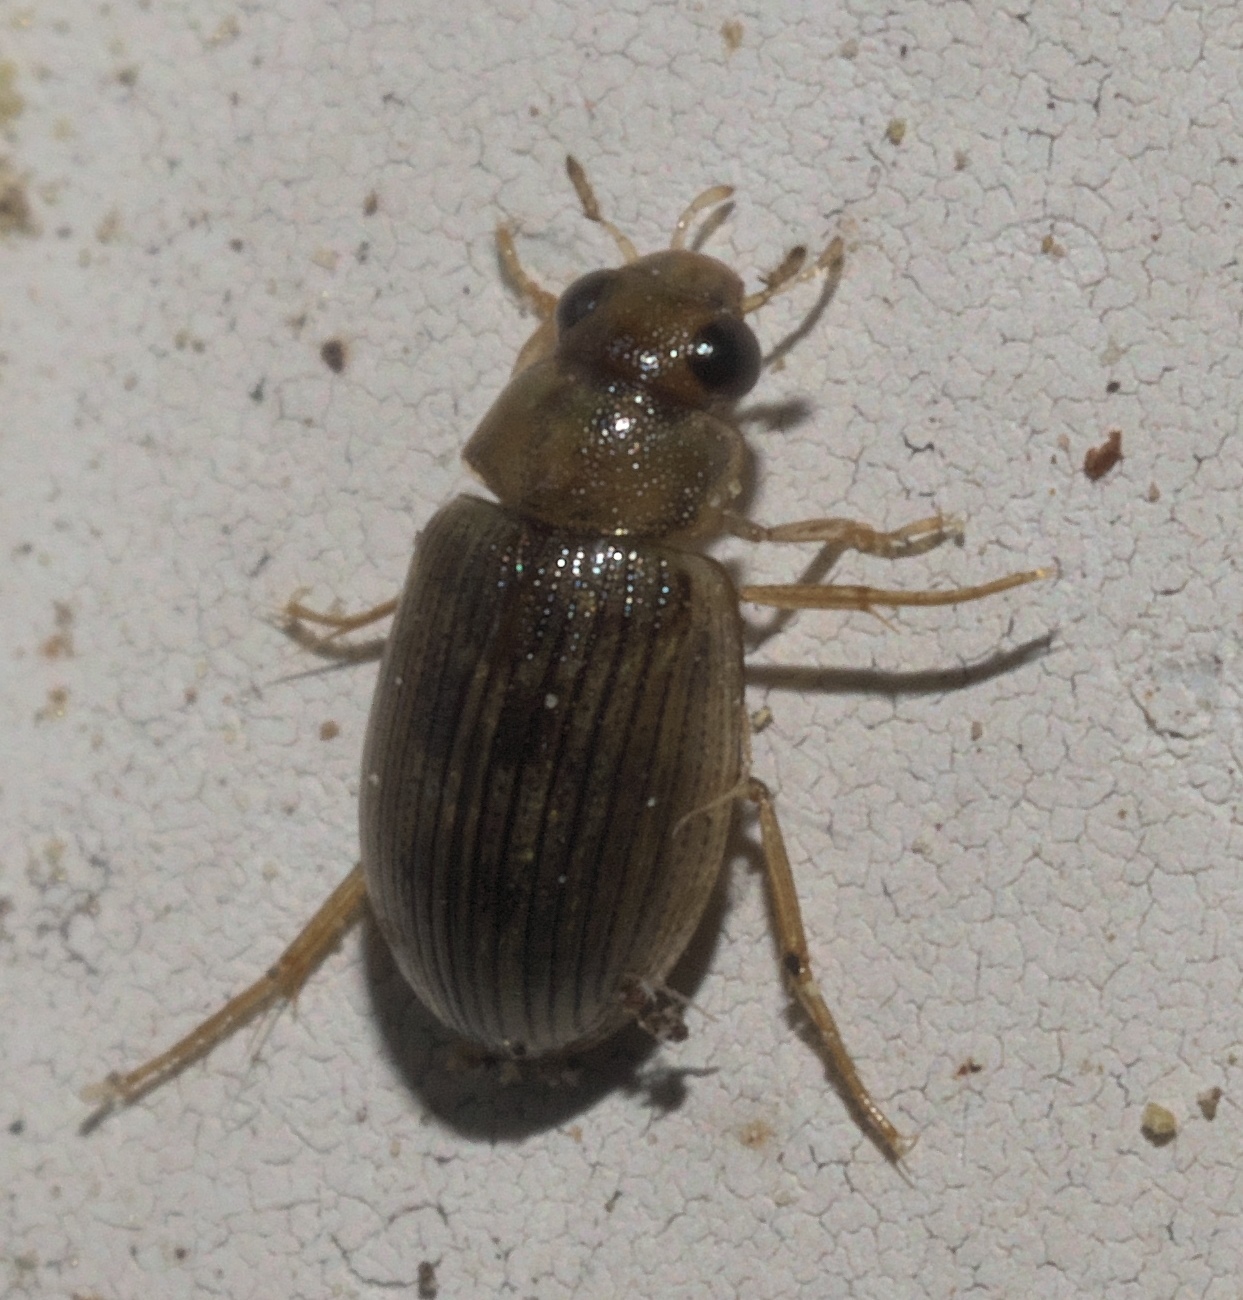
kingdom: Animalia
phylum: Arthropoda
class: Insecta
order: Coleoptera
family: Hydrophilidae
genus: Berosus
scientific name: Berosus exiguus
